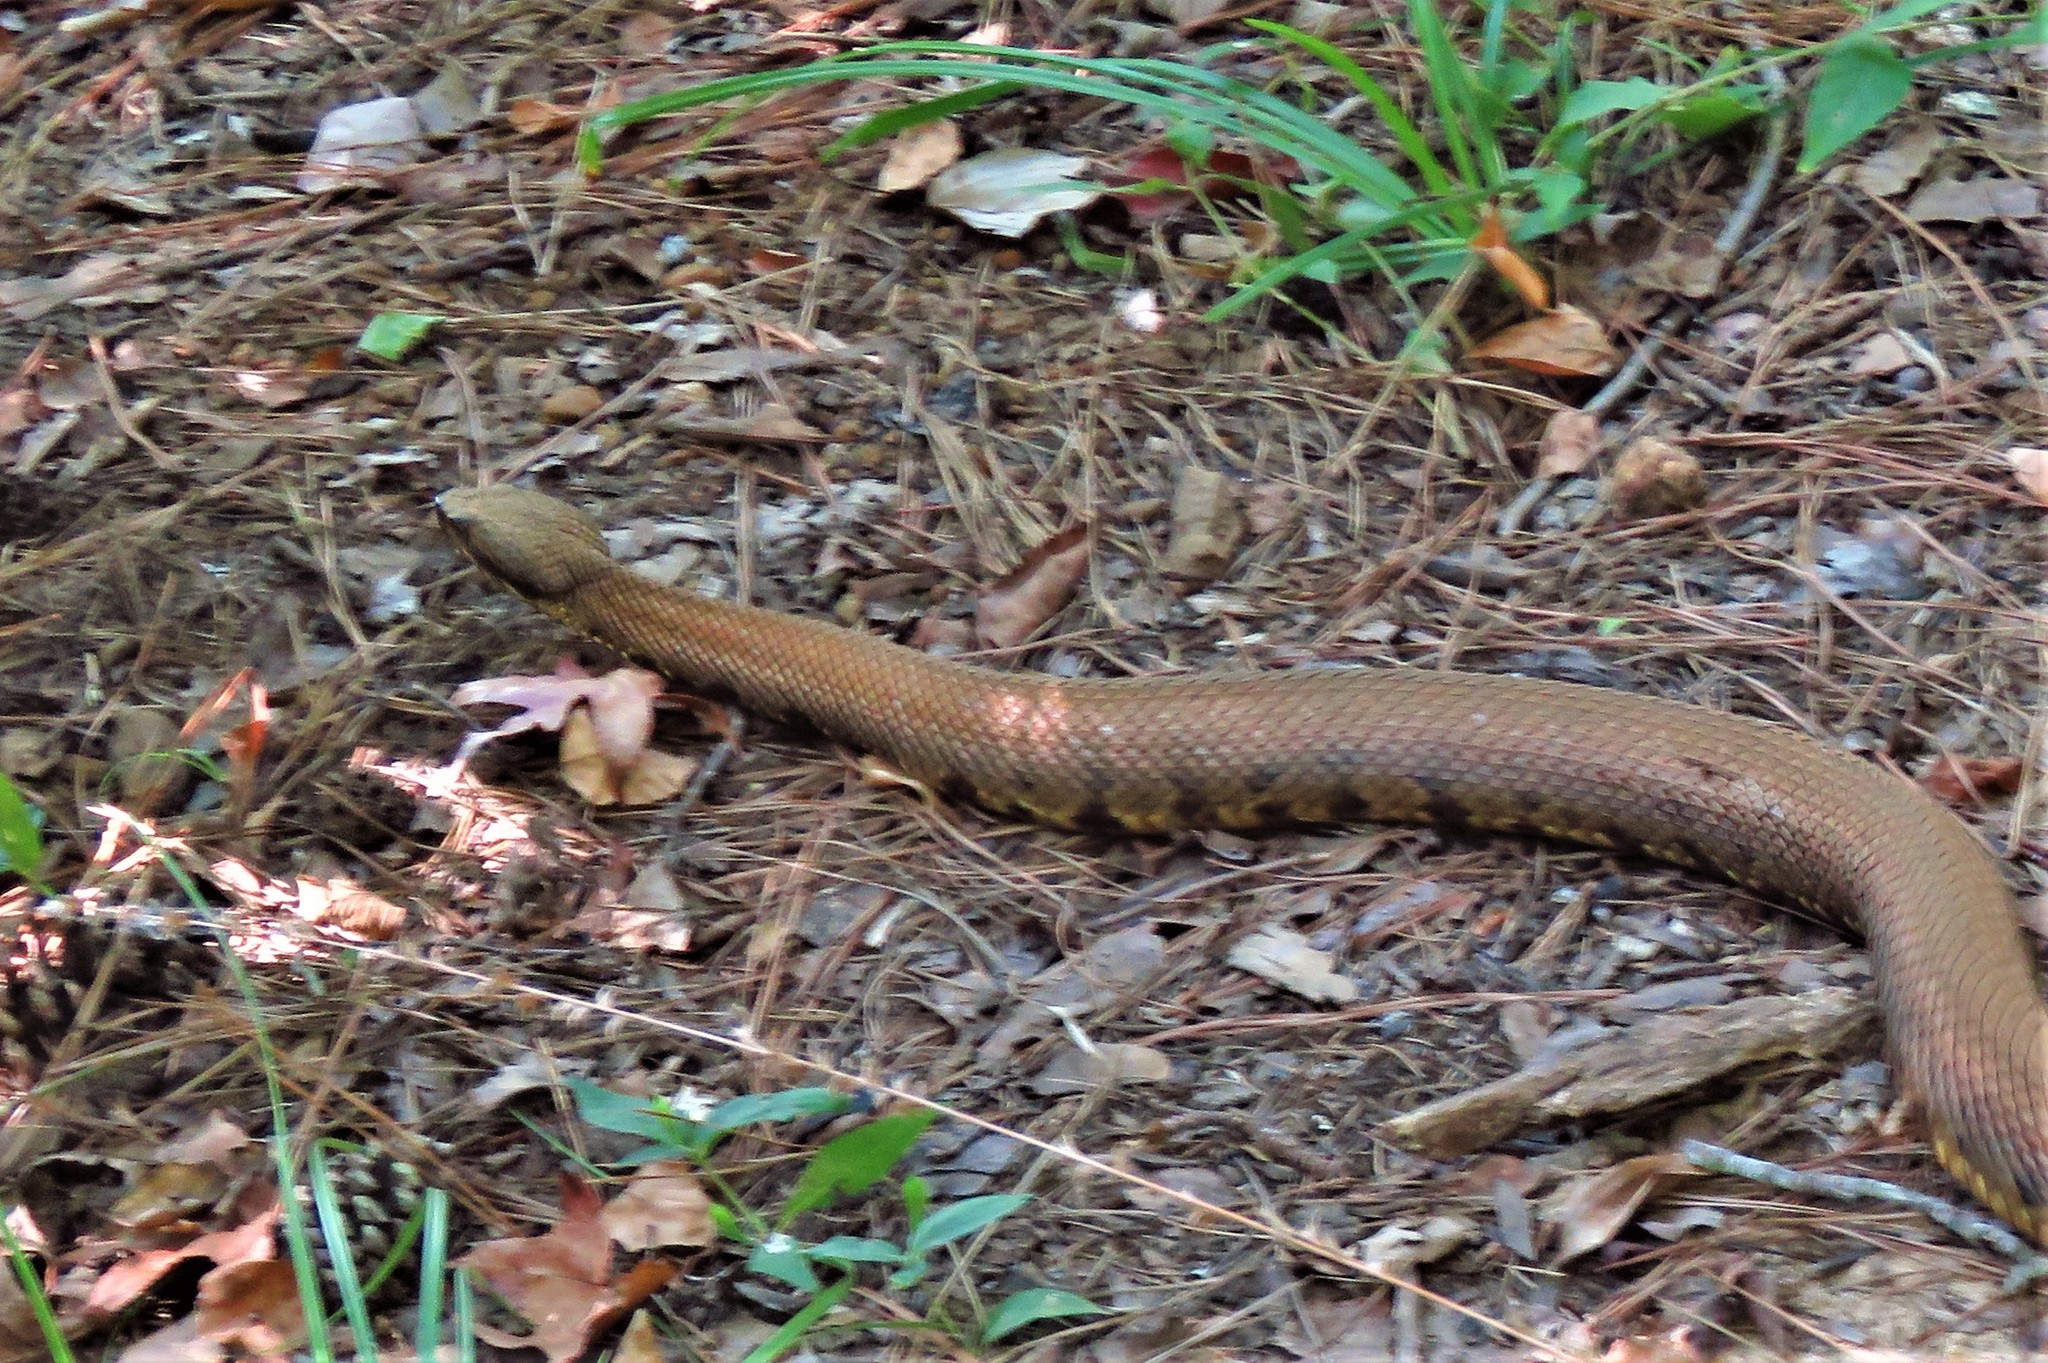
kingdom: Animalia
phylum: Chordata
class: Squamata
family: Viperidae
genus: Agkistrodon
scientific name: Agkistrodon piscivorus
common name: Cottonmouth
